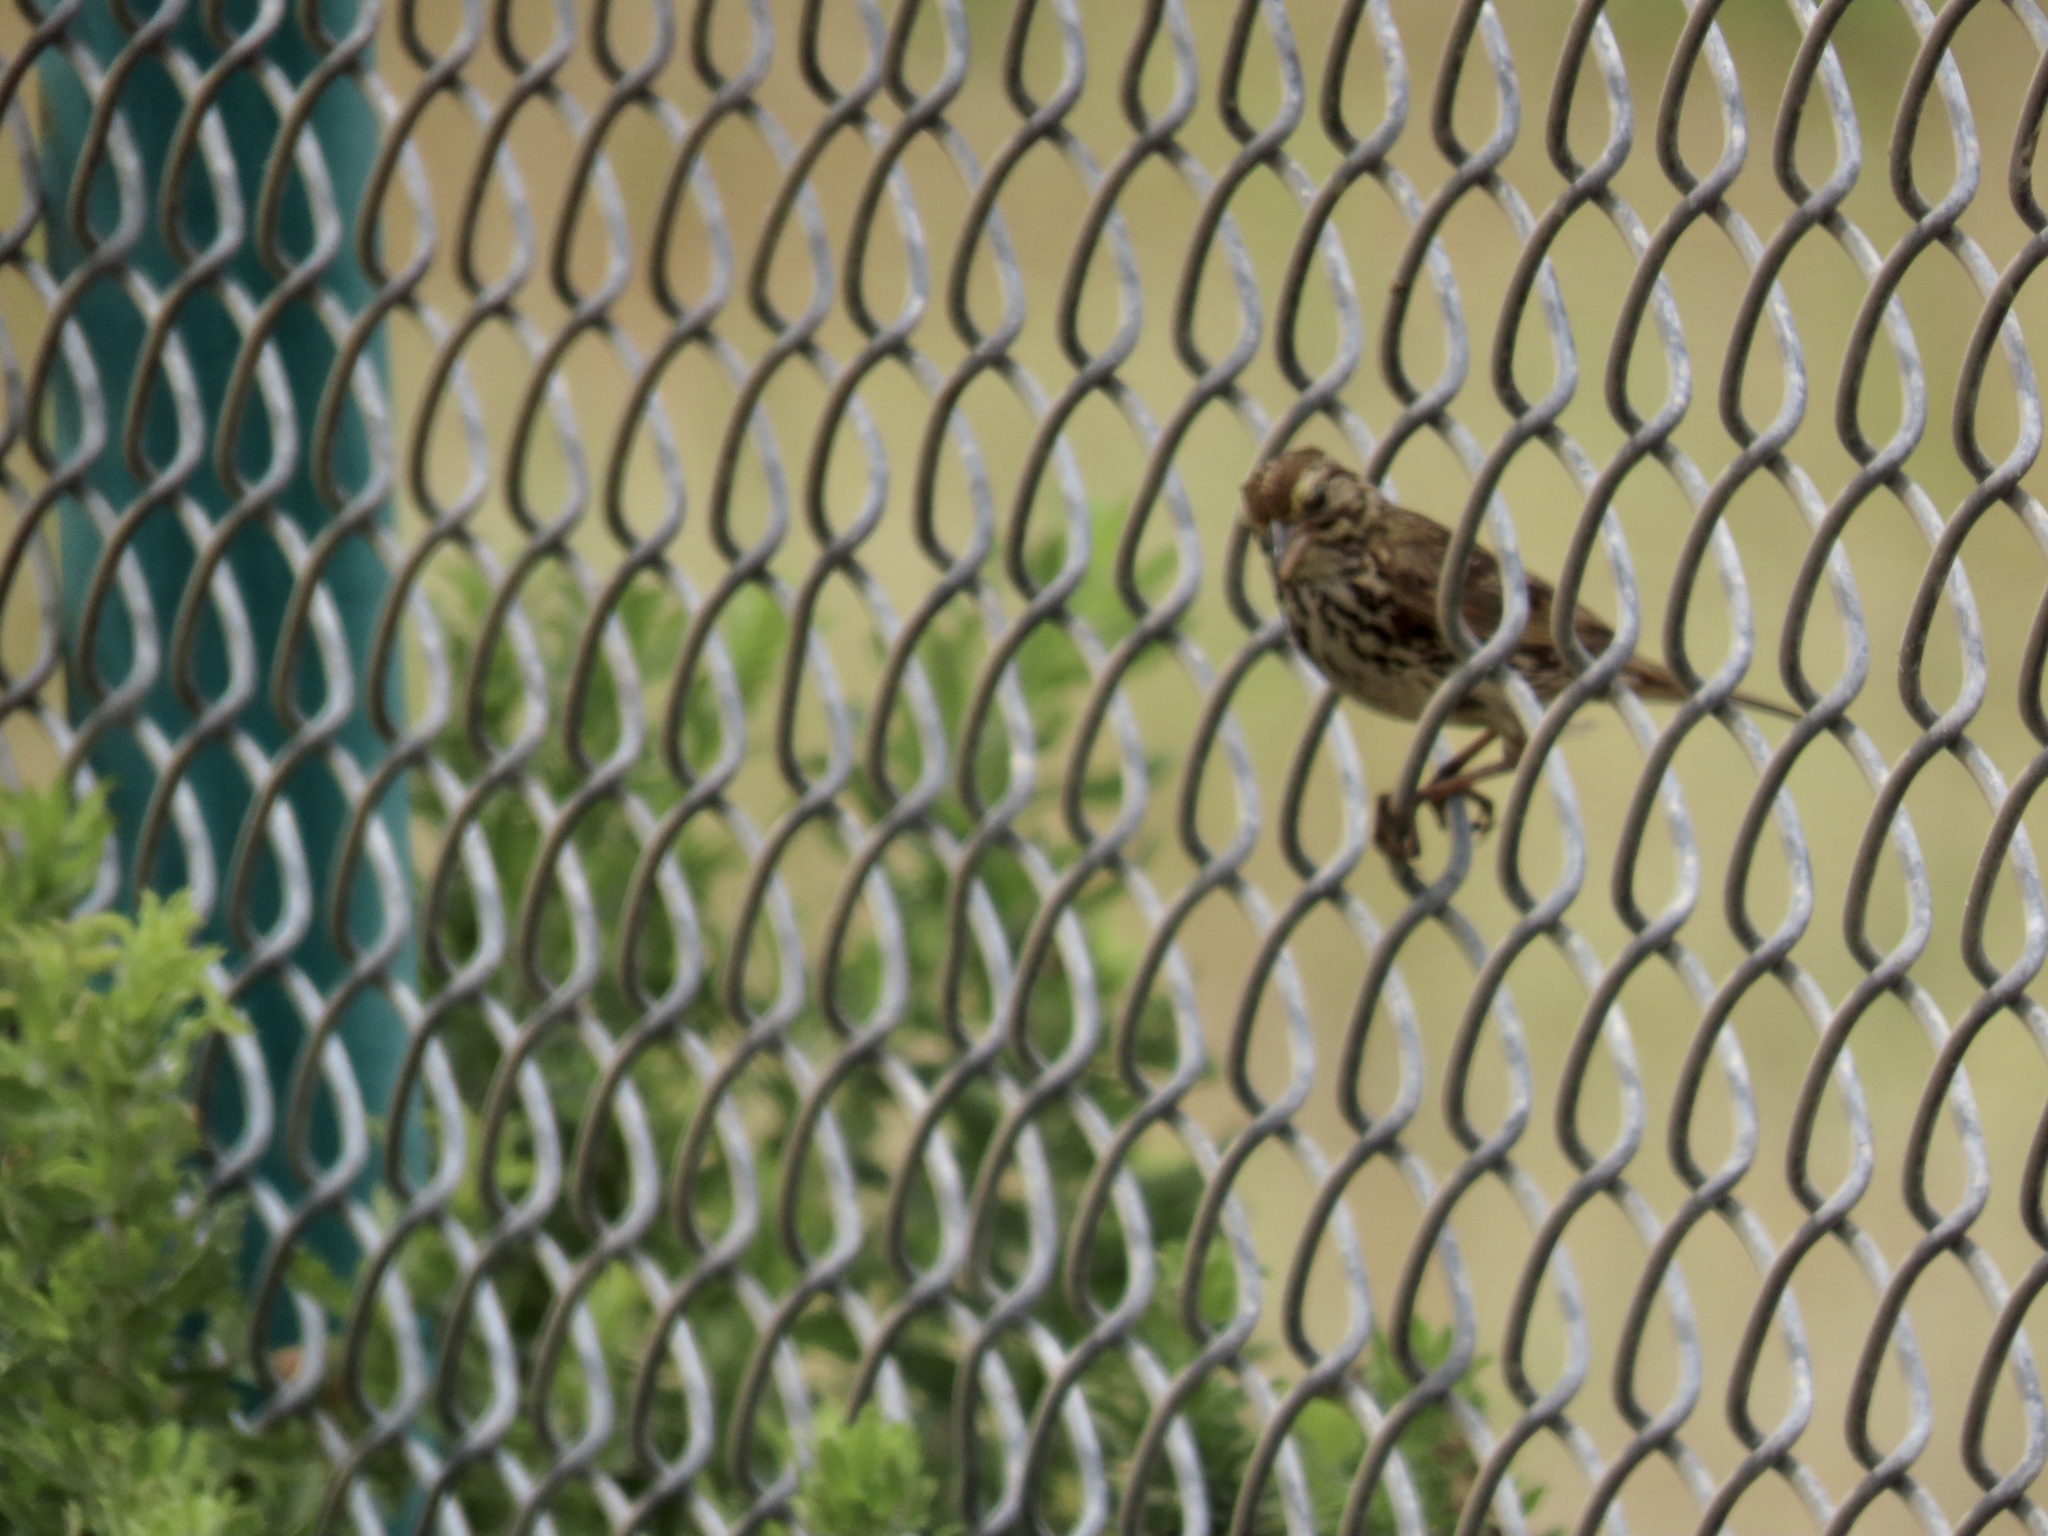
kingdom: Animalia
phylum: Chordata
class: Aves
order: Passeriformes
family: Passerellidae
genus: Passerculus
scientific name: Passerculus sandwichensis
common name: Savannah sparrow
